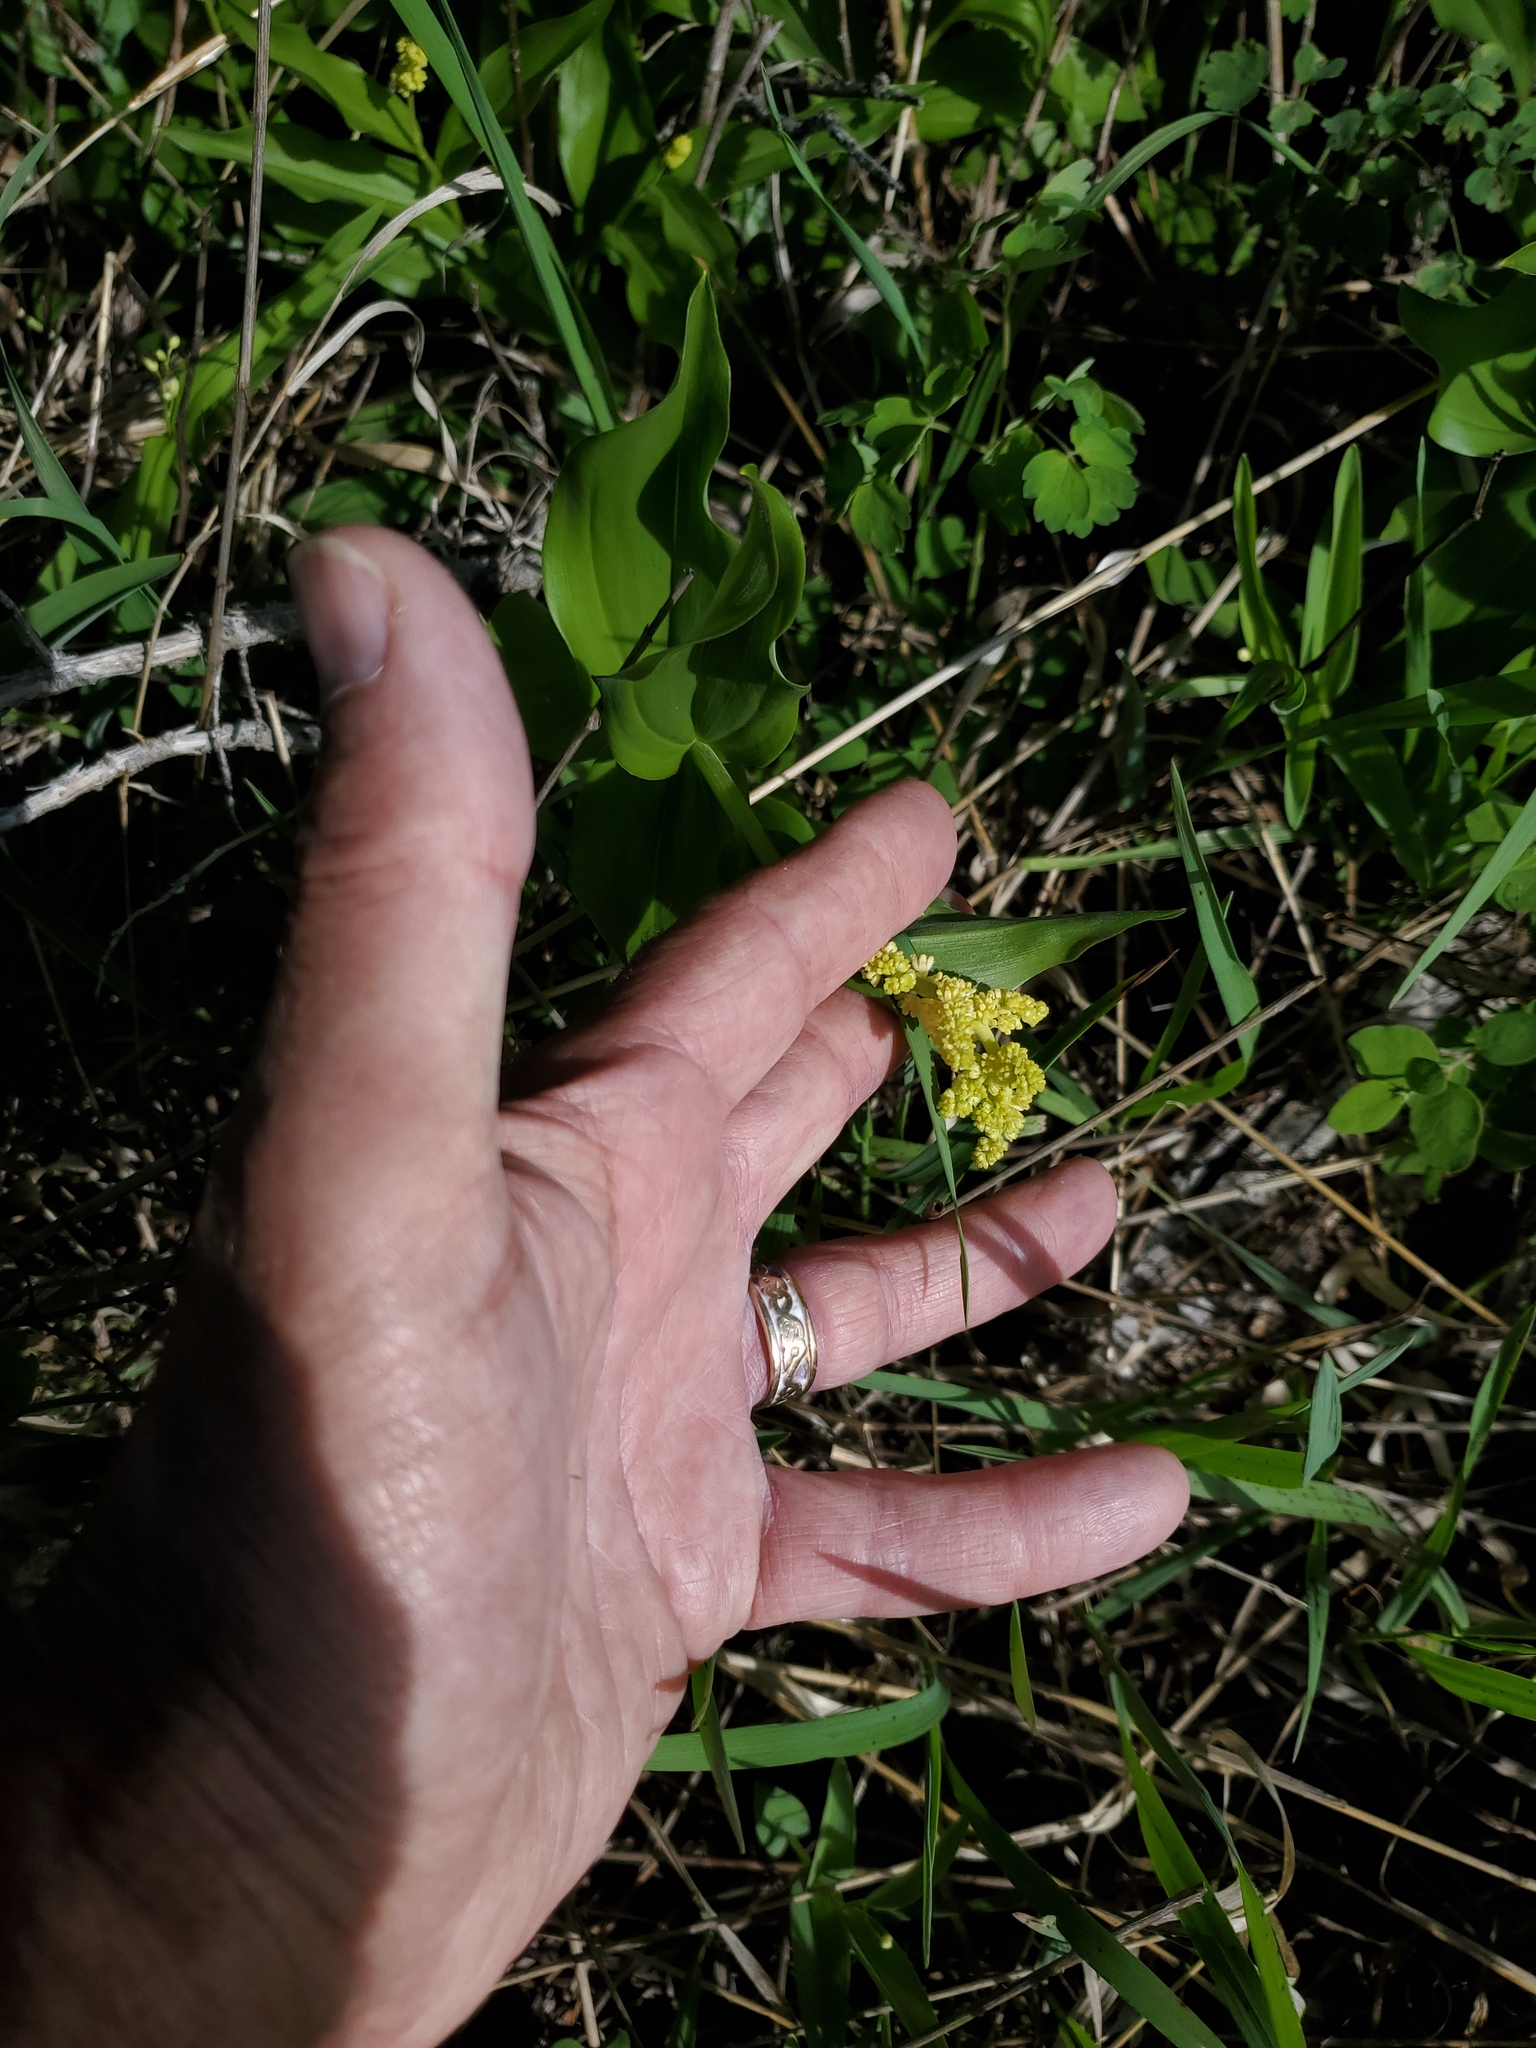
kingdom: Plantae
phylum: Tracheophyta
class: Liliopsida
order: Asparagales
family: Asparagaceae
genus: Maianthemum
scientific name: Maianthemum racemosum
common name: False spikenard
